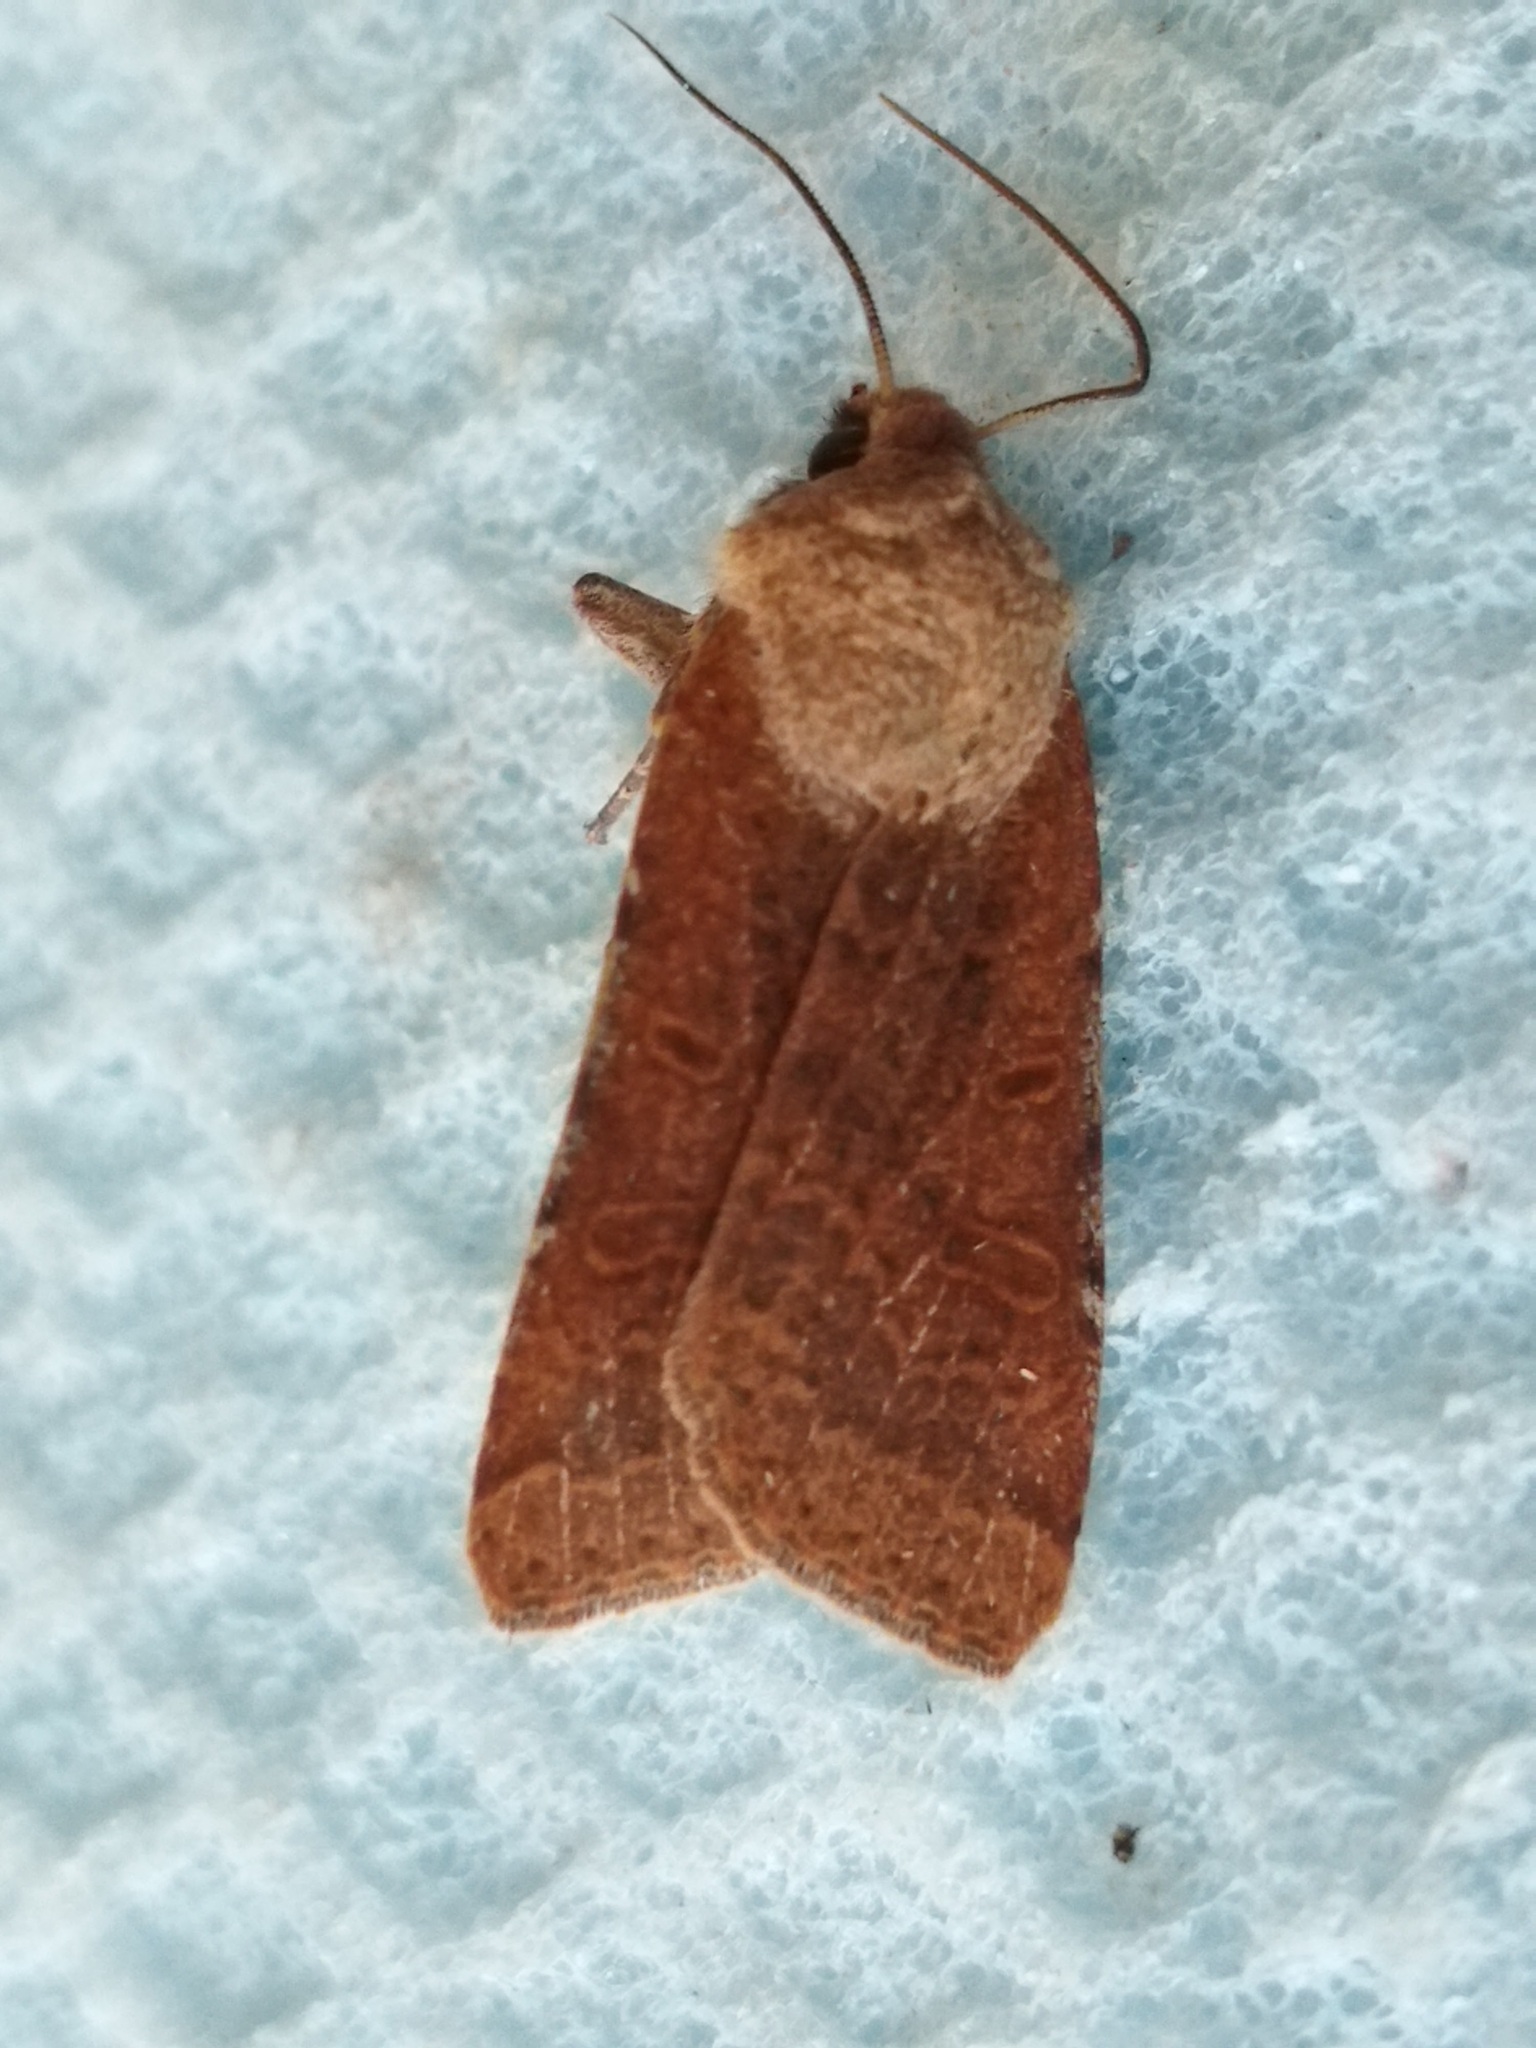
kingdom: Animalia
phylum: Arthropoda
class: Insecta
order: Lepidoptera
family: Noctuidae
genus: Agrochola
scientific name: Agrochola lychnidis
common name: Beaded chestnut
